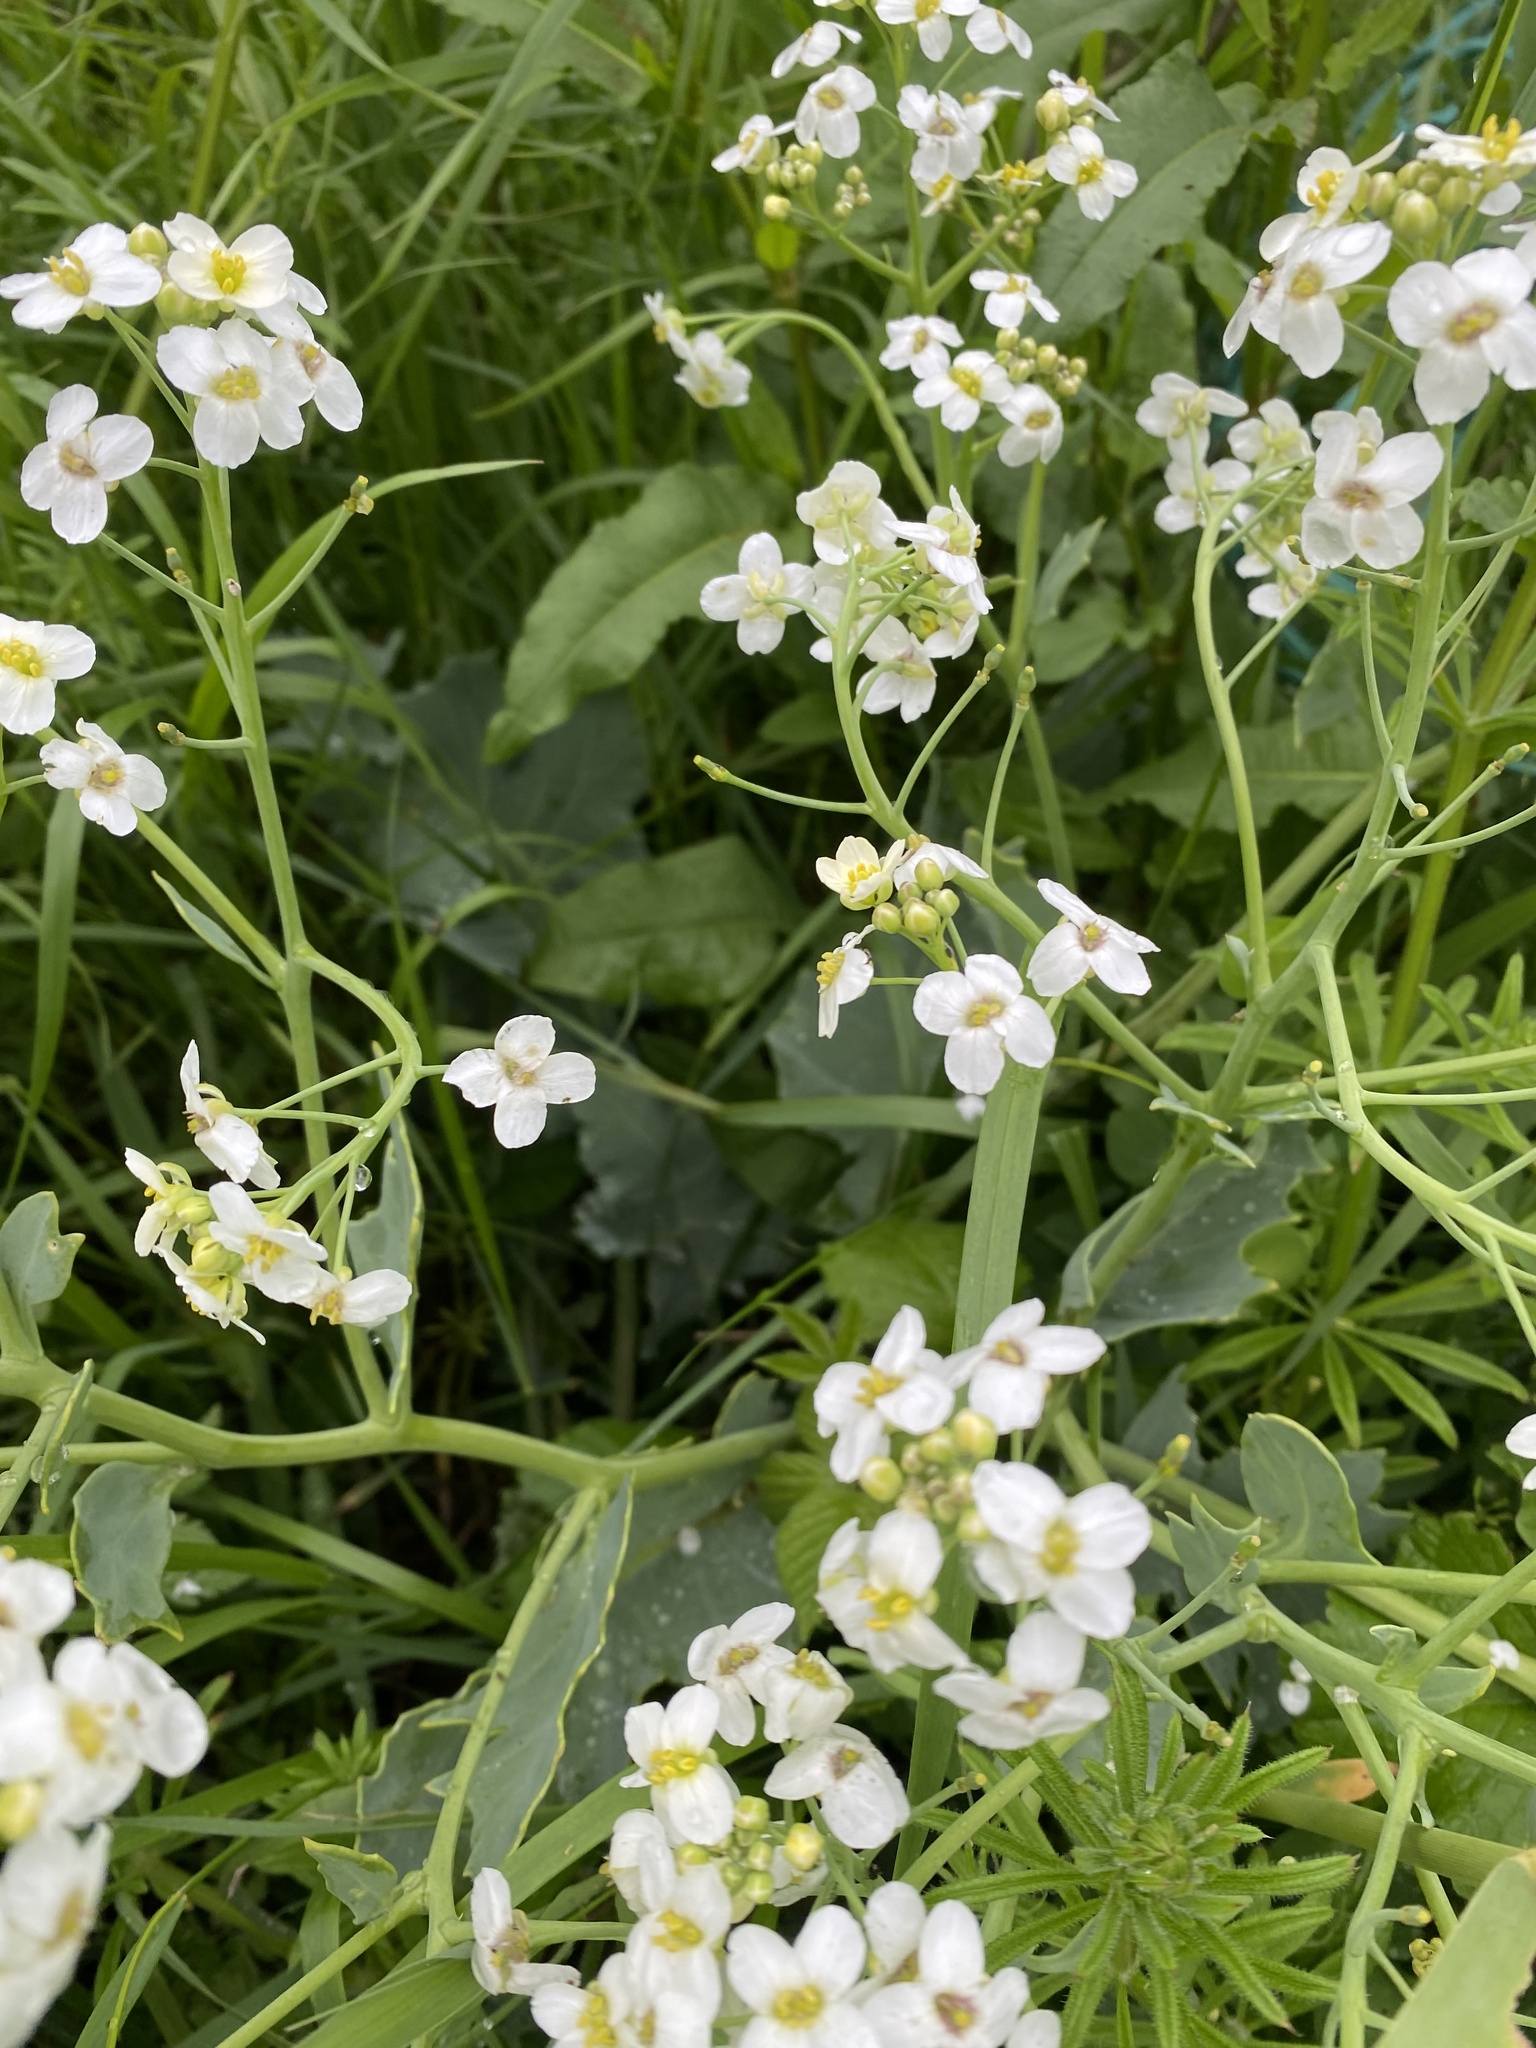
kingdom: Plantae
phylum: Tracheophyta
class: Magnoliopsida
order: Brassicales
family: Brassicaceae
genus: Crambe
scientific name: Crambe maritima
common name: Sea-kale
